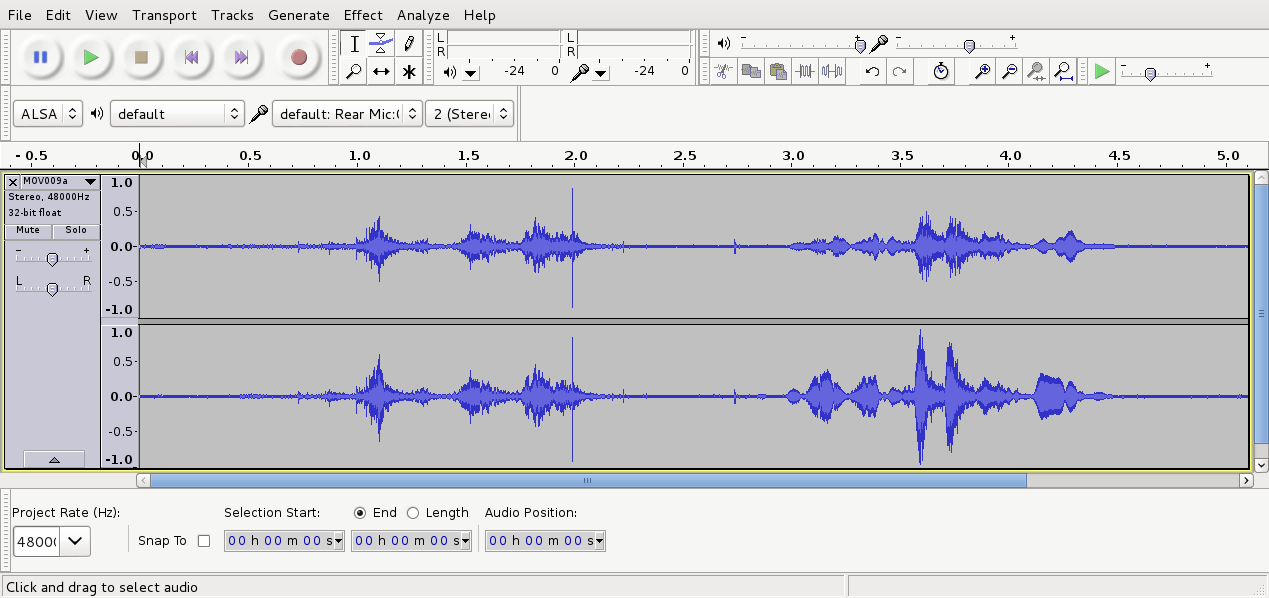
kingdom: Animalia
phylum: Chordata
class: Aves
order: Passeriformes
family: Meliphagidae
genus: Prosthemadera
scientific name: Prosthemadera novaeseelandiae
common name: Tui
